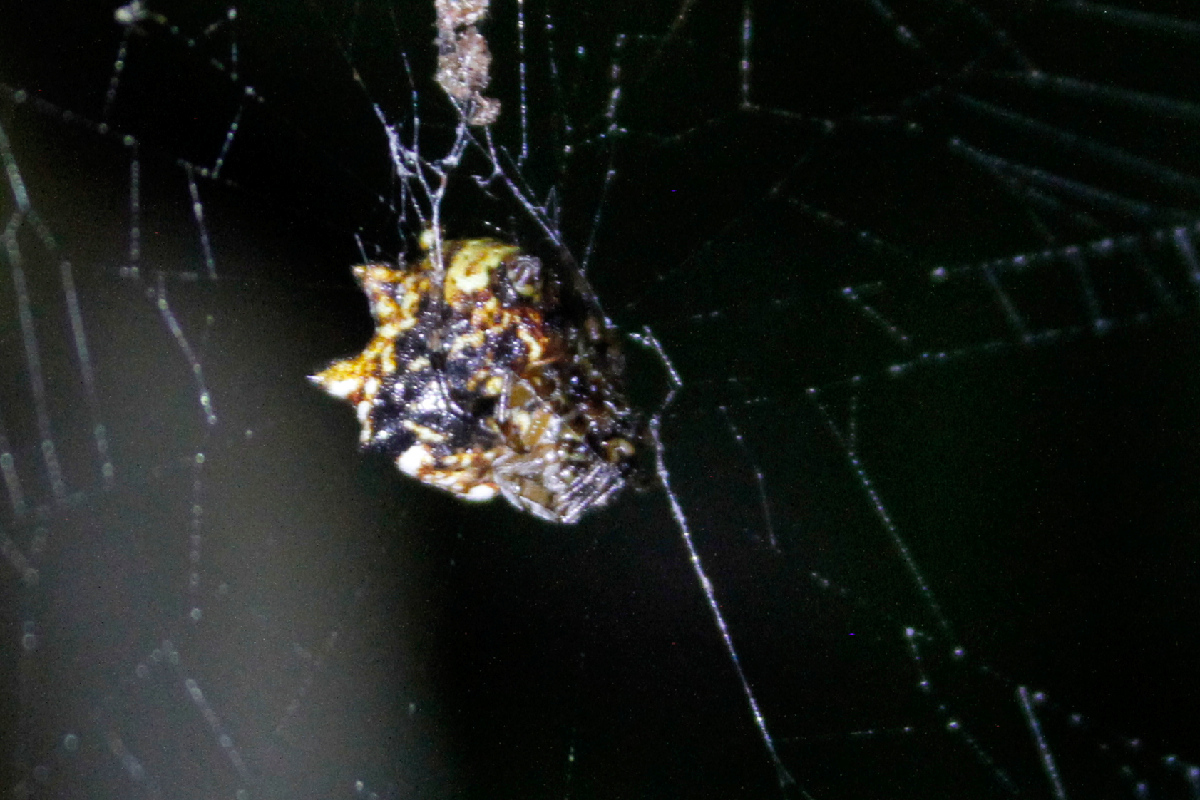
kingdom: Animalia
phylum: Arthropoda
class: Arachnida
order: Araneae
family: Araneidae
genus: Thelacantha
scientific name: Thelacantha brevispina
